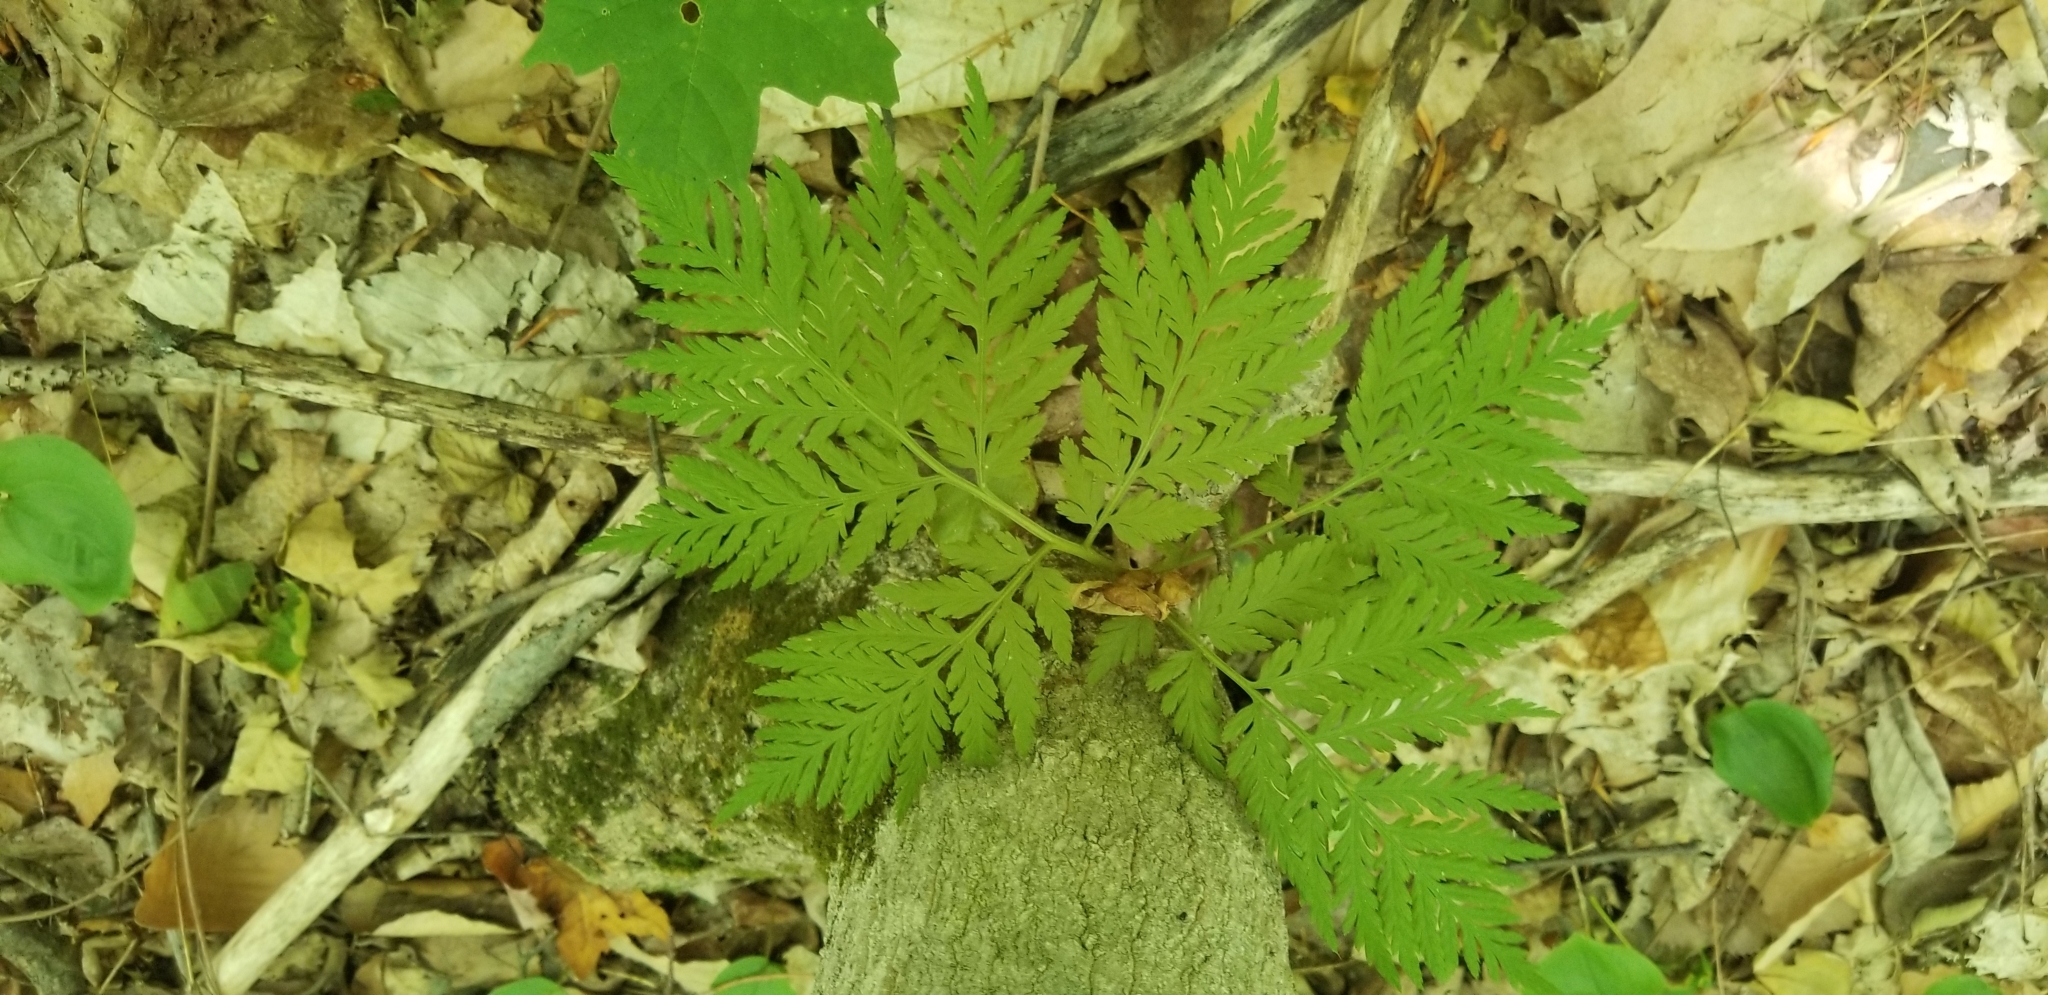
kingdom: Plantae
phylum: Tracheophyta
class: Polypodiopsida
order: Ophioglossales
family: Ophioglossaceae
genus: Botrypus
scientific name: Botrypus virginianus
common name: Common grapefern
